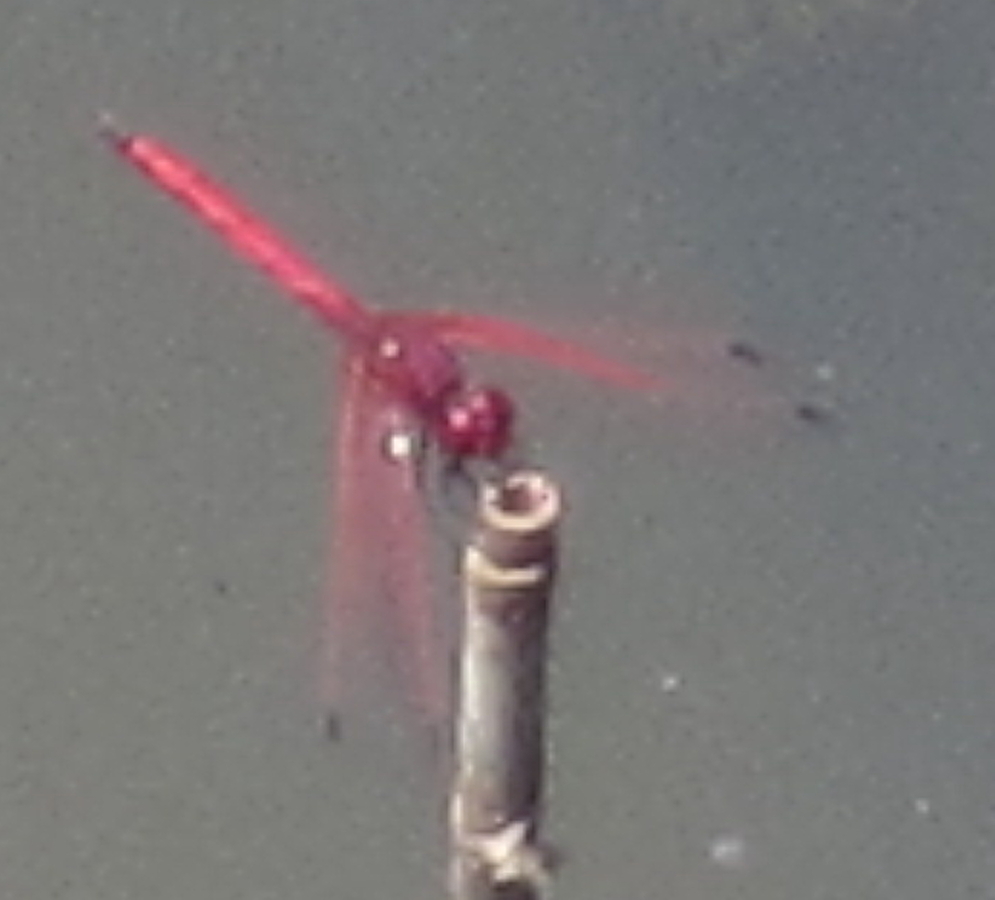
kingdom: Animalia
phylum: Arthropoda
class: Insecta
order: Odonata
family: Libellulidae
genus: Trithemis
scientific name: Trithemis arteriosa
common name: Red-veined dropwing
